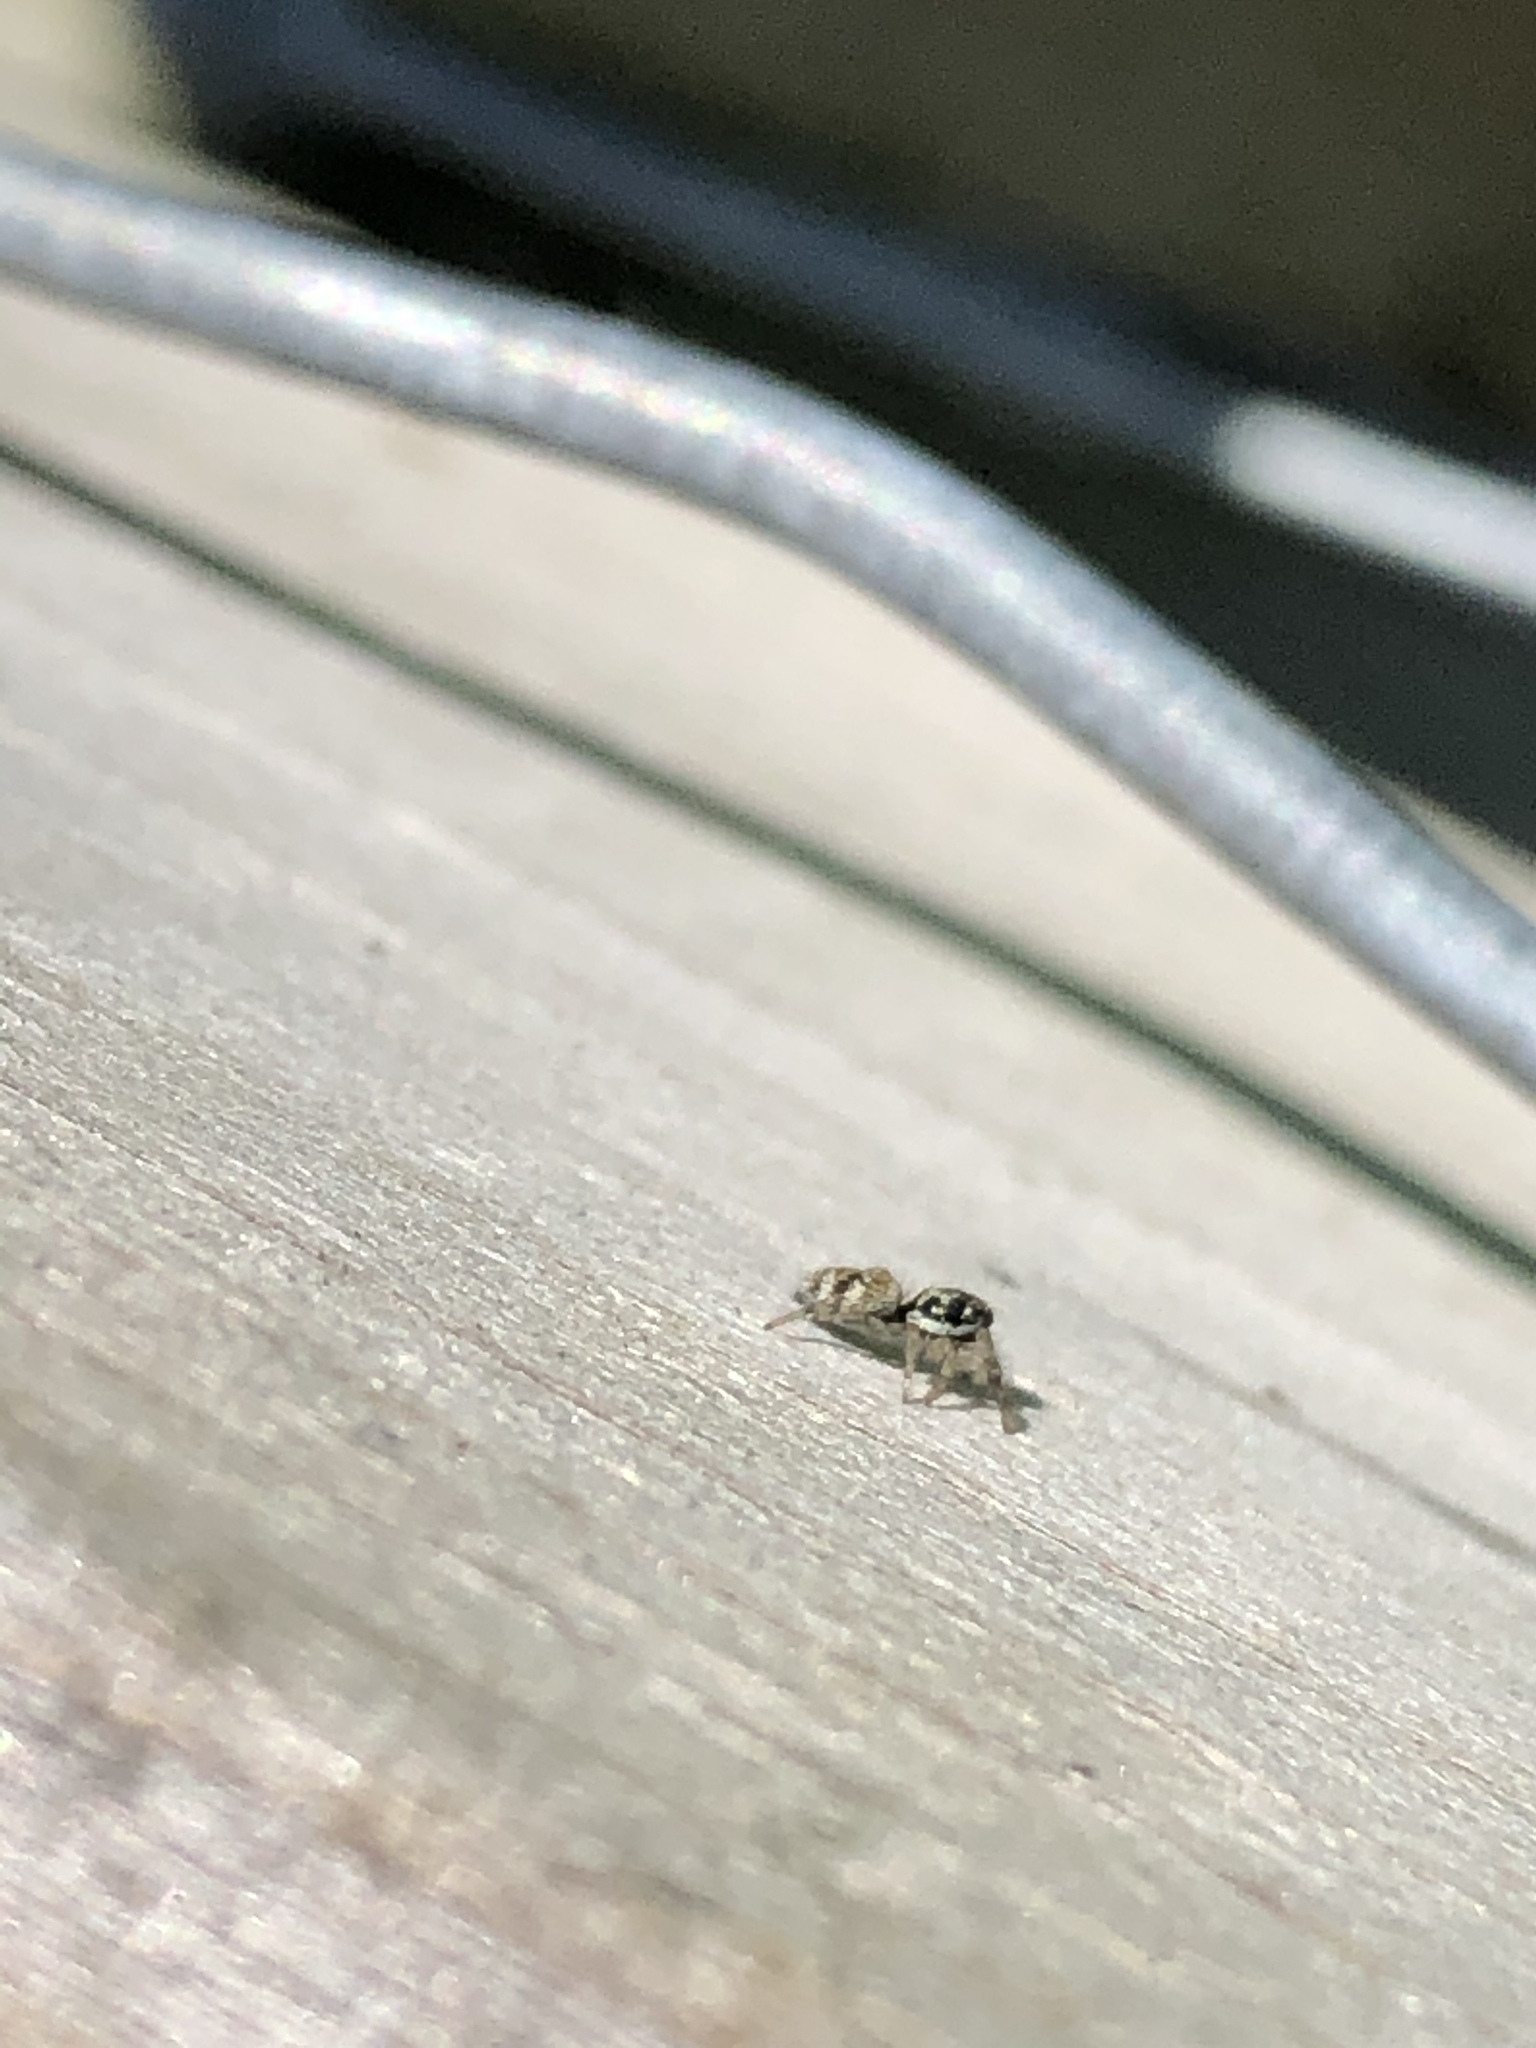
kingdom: Animalia
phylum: Arthropoda
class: Arachnida
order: Araneae
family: Salticidae
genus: Salticus
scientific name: Salticus scenicus
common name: Zebra jumper
